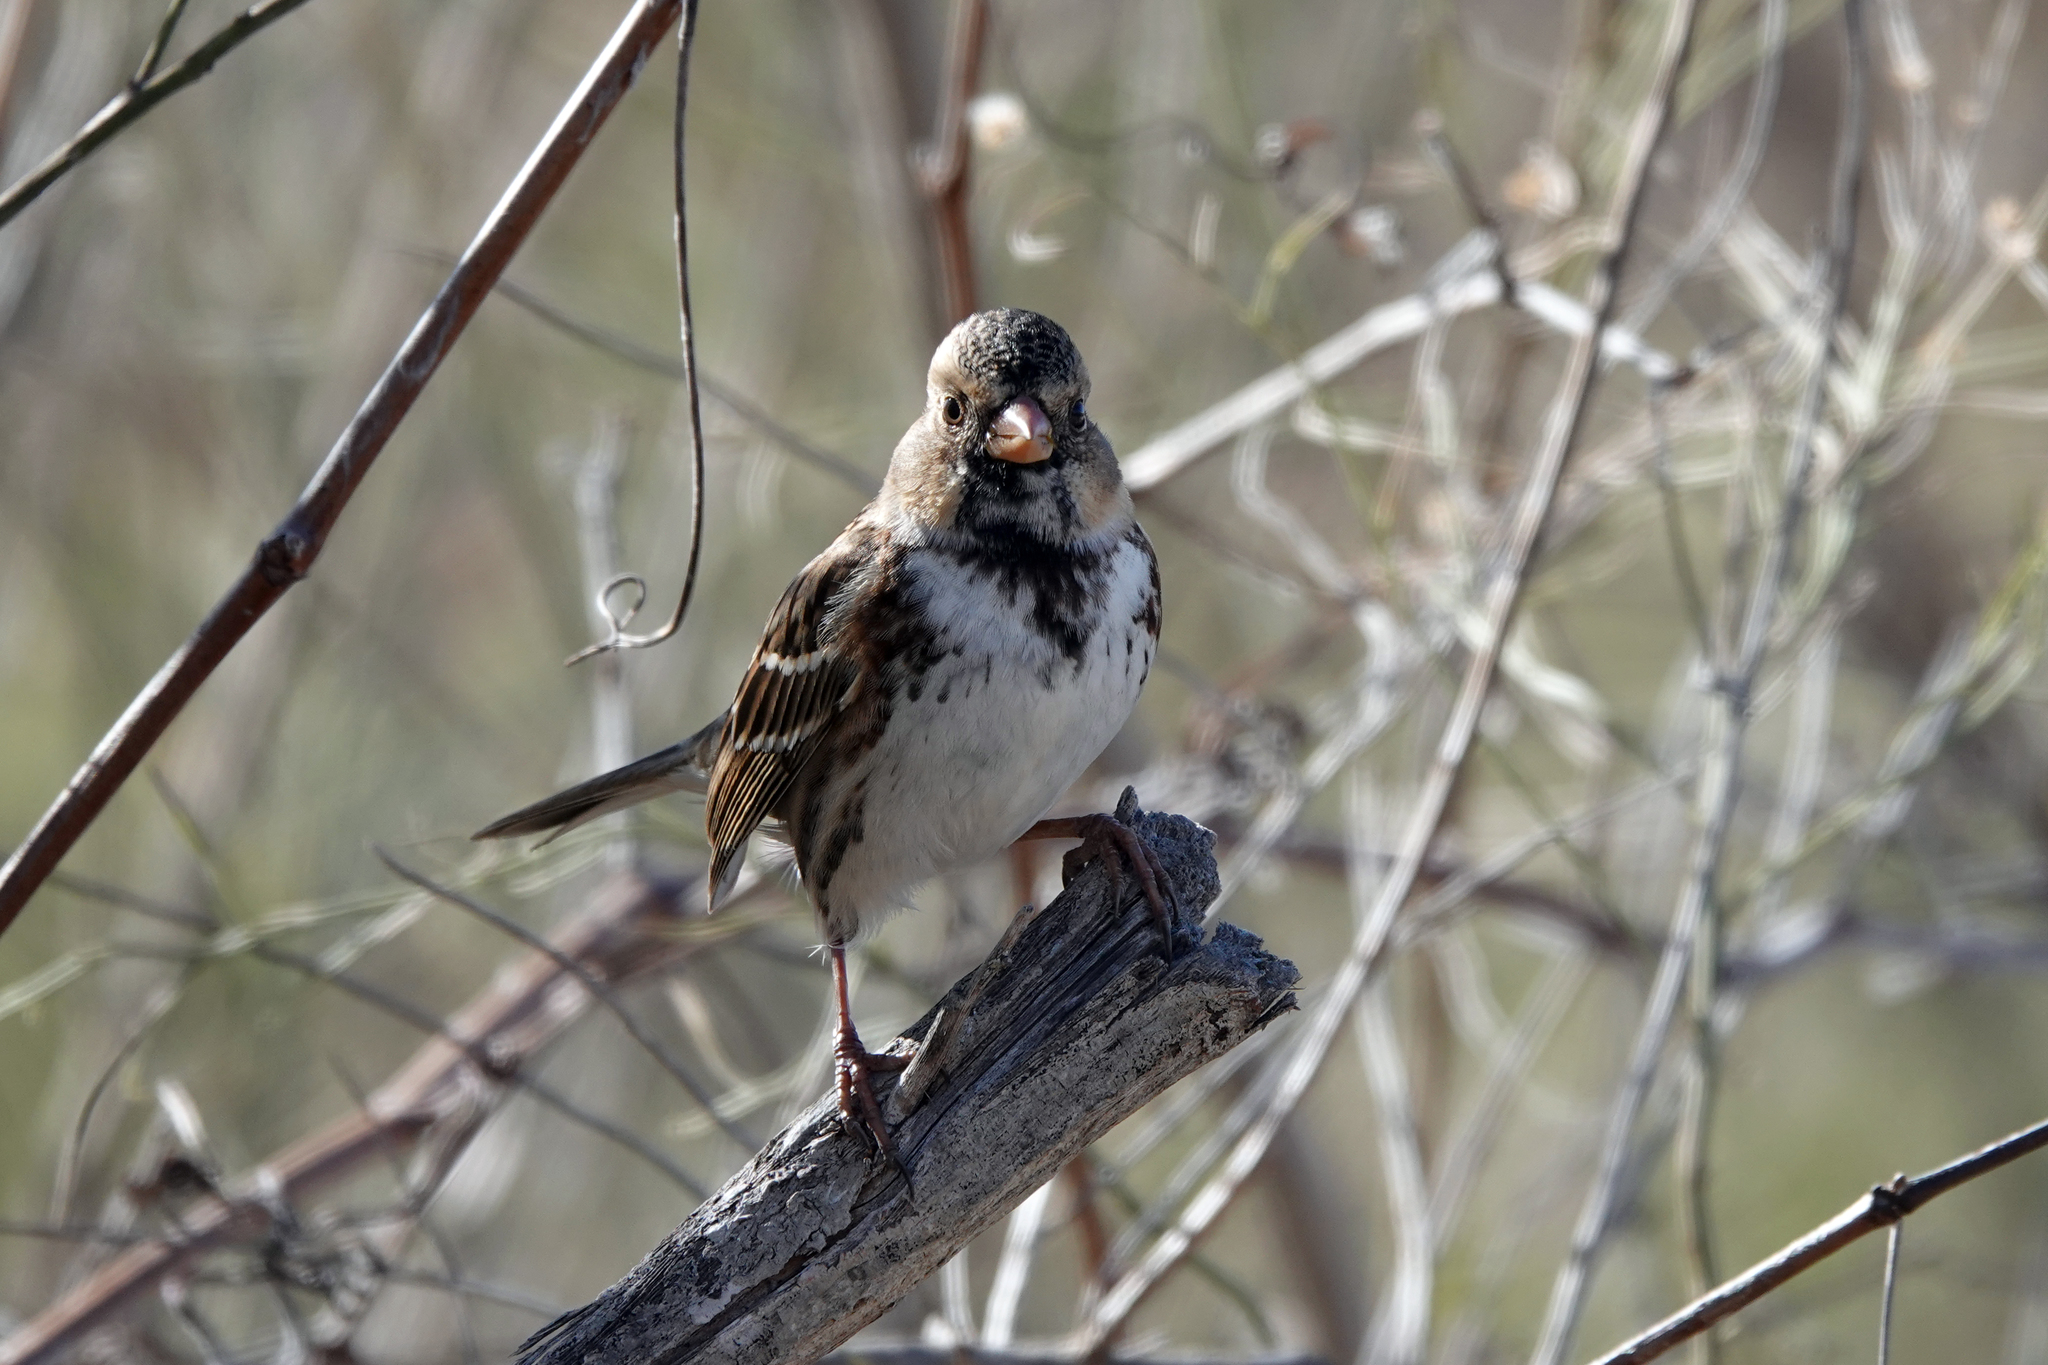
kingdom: Animalia
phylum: Chordata
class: Aves
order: Passeriformes
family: Passerellidae
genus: Zonotrichia
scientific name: Zonotrichia querula
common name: Harris's sparrow
